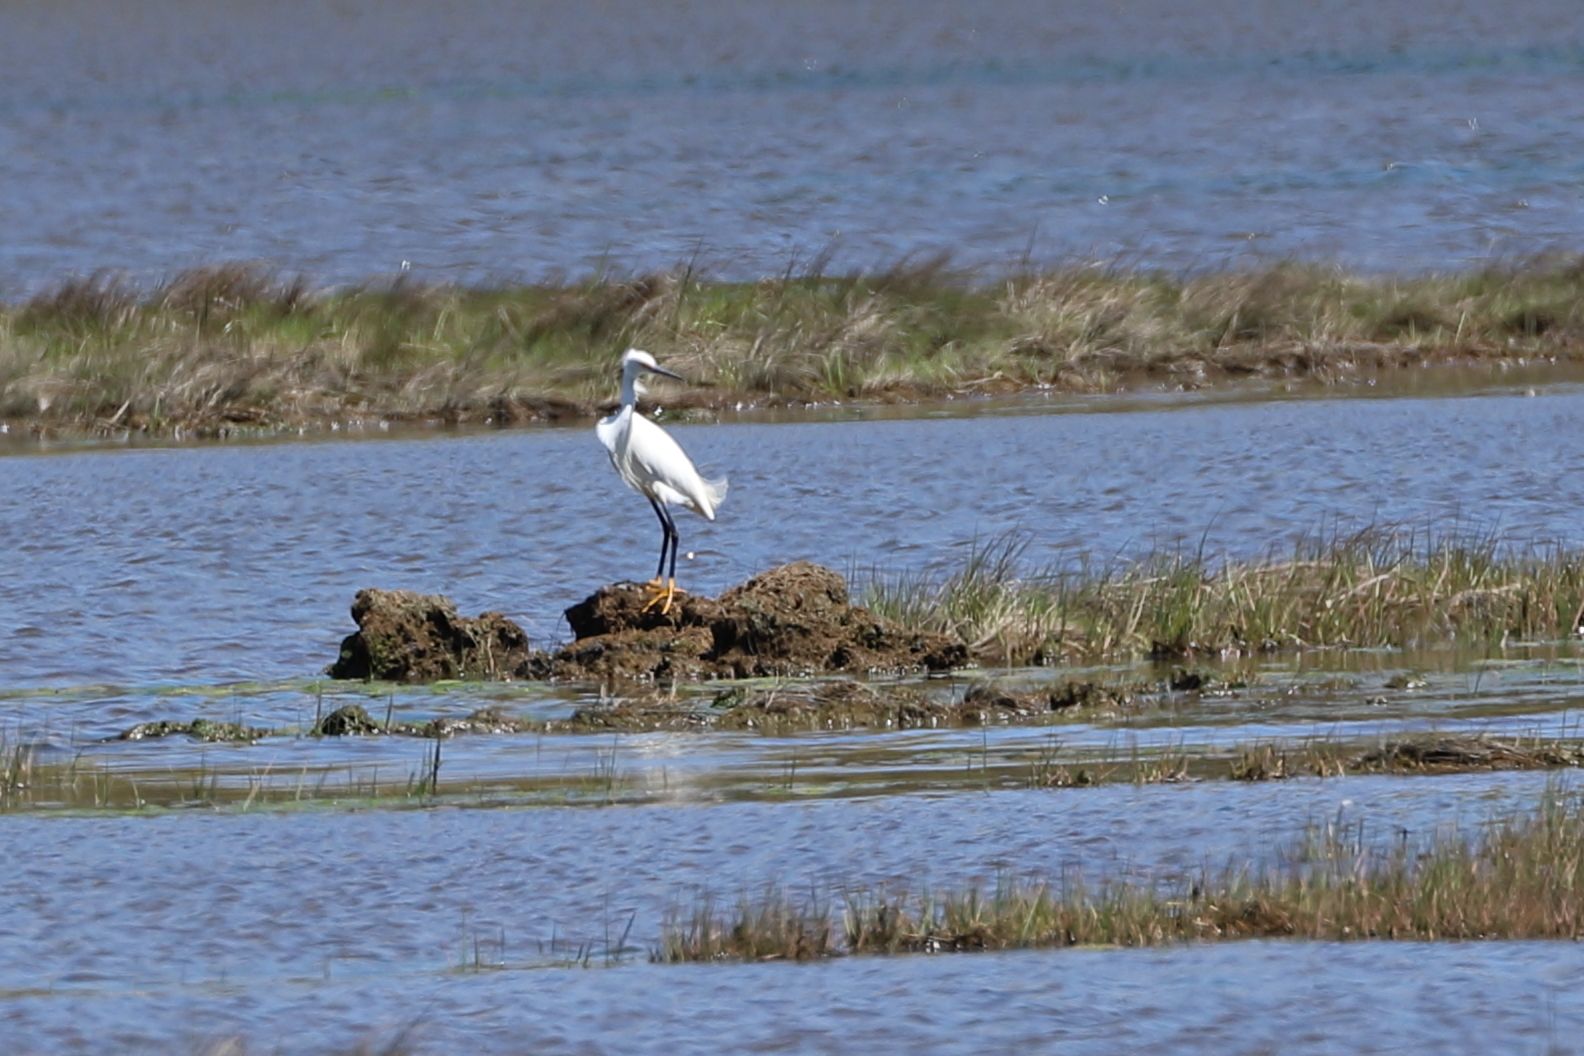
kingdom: Animalia
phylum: Chordata
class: Aves
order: Pelecaniformes
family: Ardeidae
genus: Egretta
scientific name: Egretta thula
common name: Snowy egret
